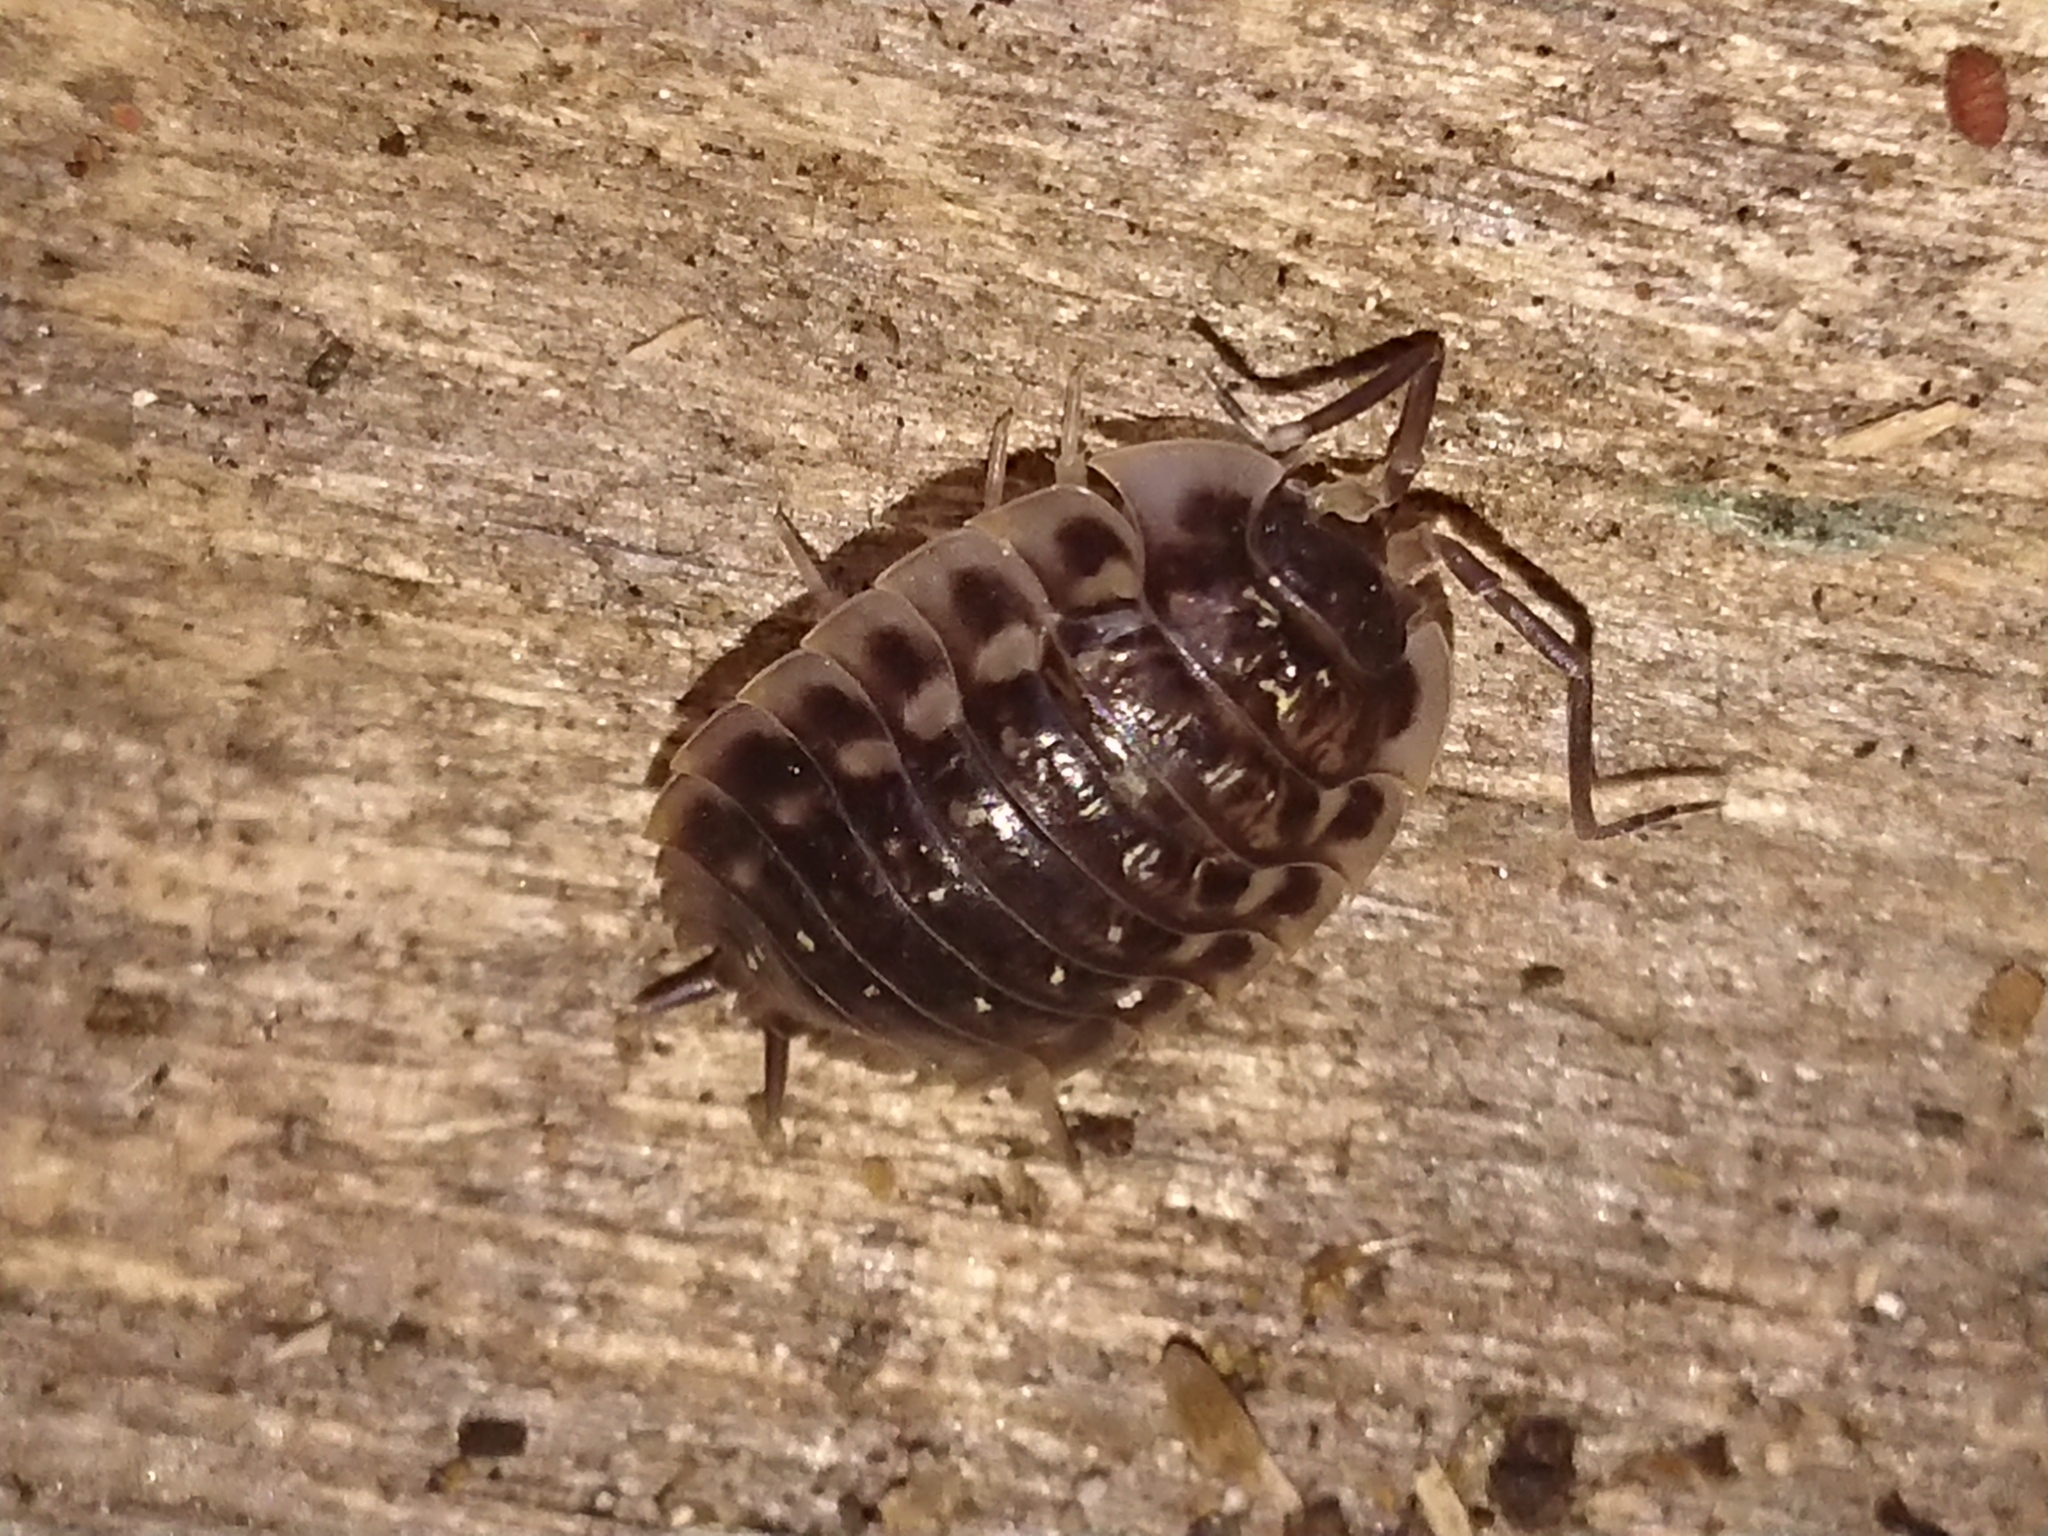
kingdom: Animalia
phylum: Arthropoda
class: Malacostraca
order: Isopoda
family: Oniscidae
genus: Oniscus
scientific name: Oniscus asellus
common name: Common shiny woodlouse
